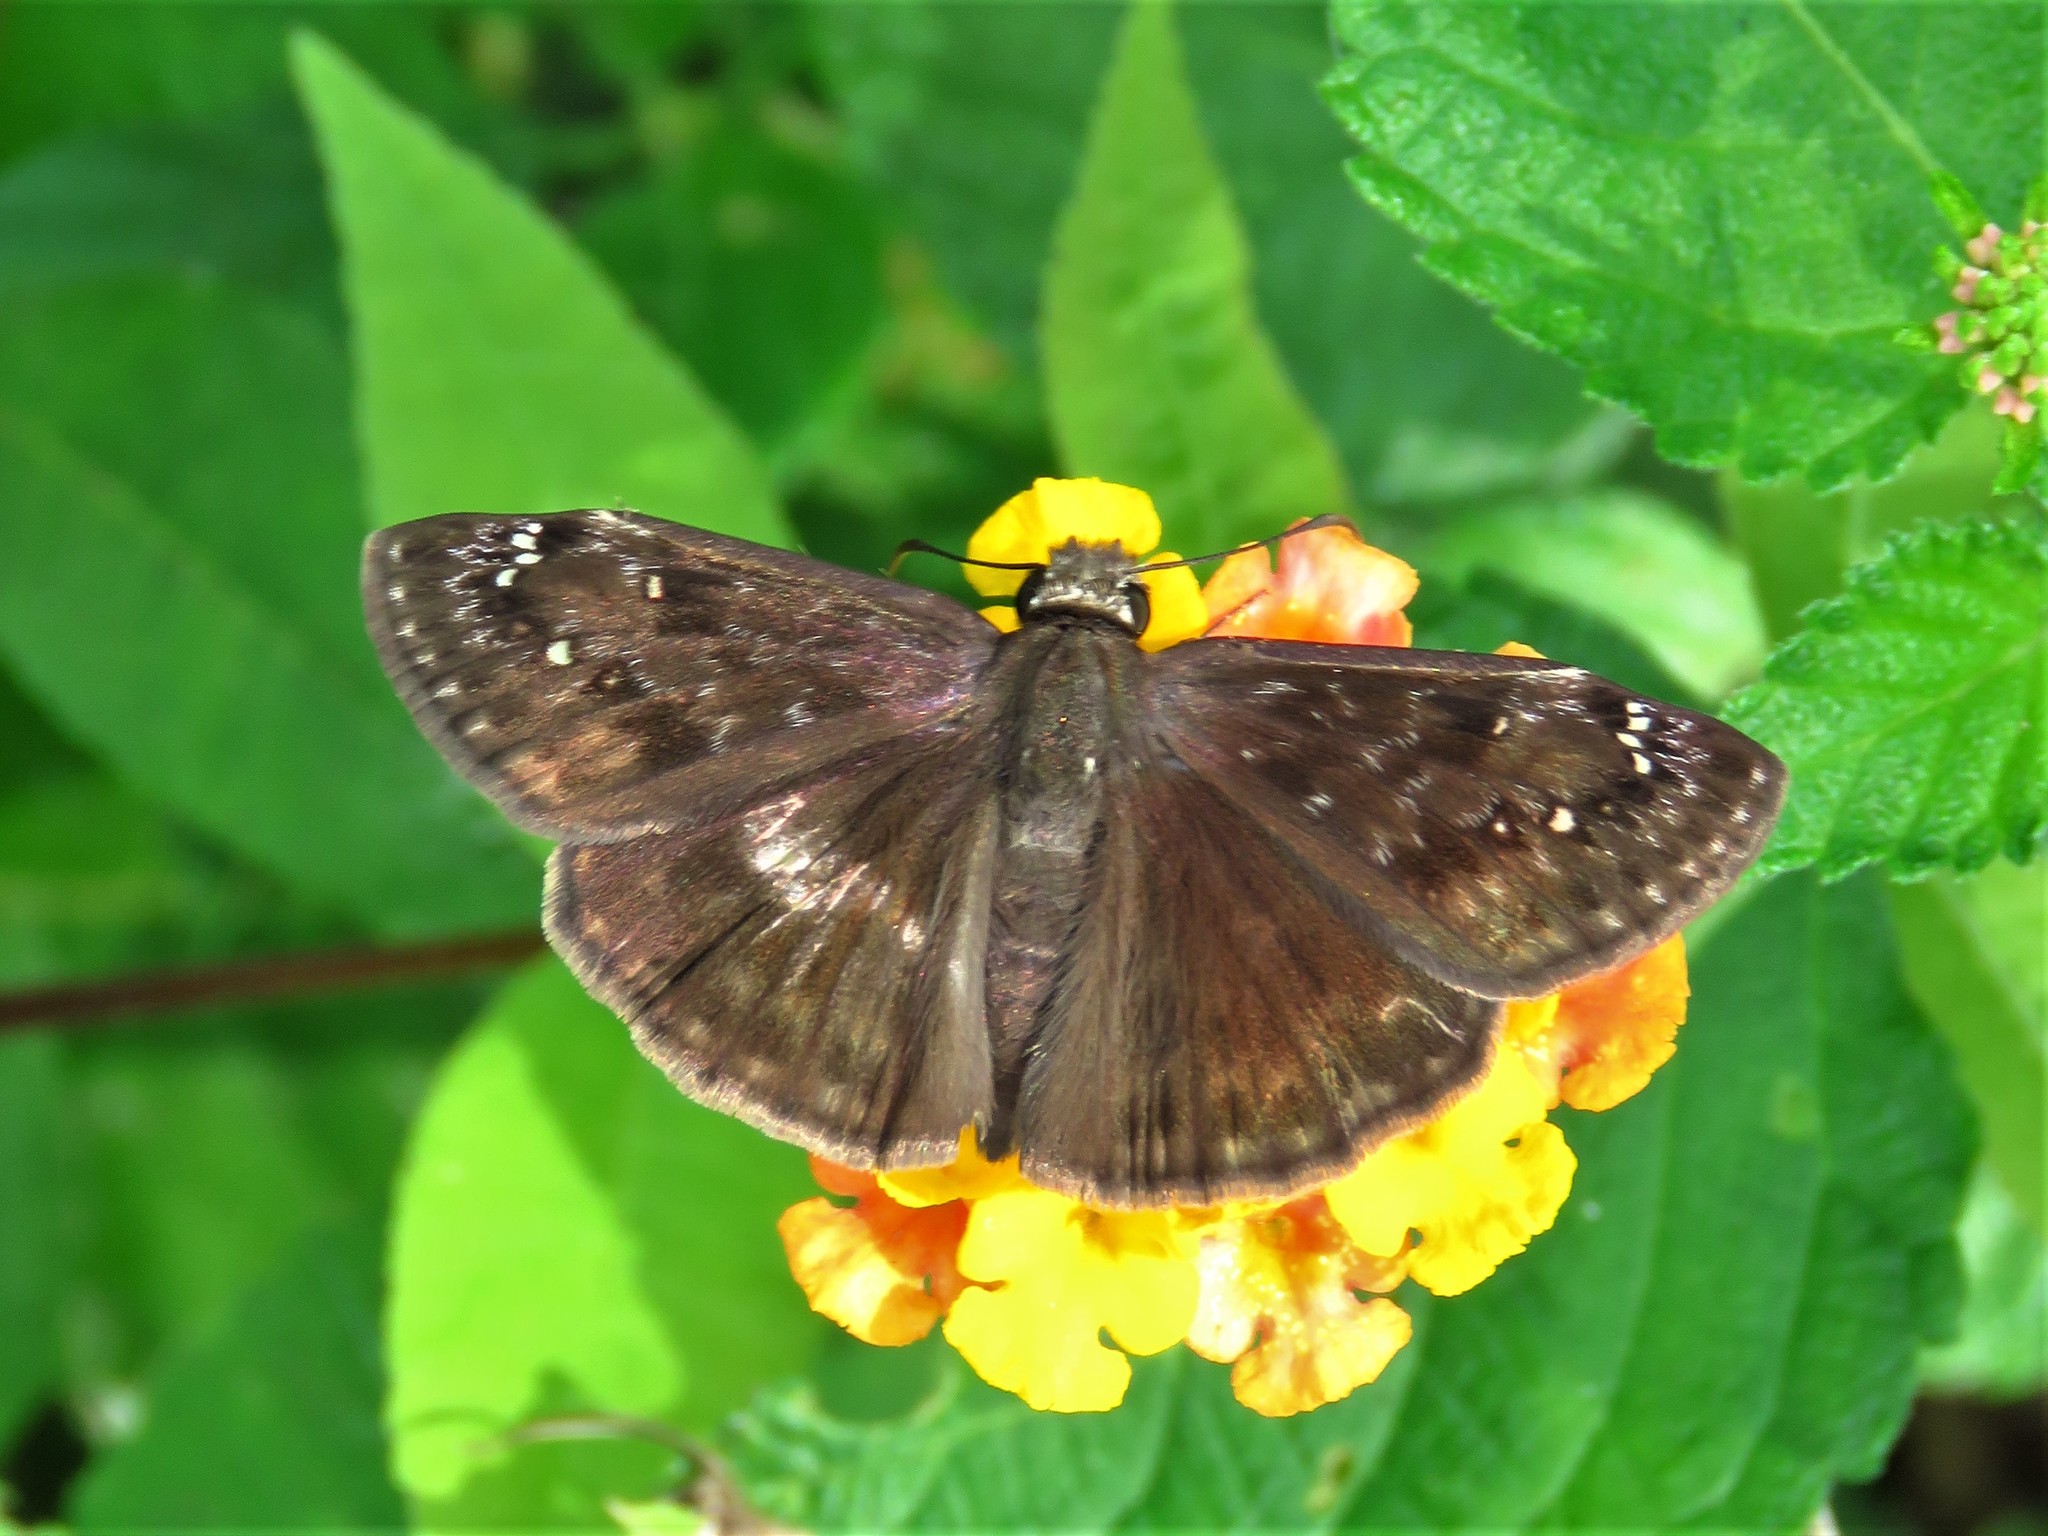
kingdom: Animalia
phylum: Arthropoda
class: Insecta
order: Lepidoptera
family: Hesperiidae
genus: Erynnis
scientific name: Erynnis horatius
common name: Horace's duskywing
